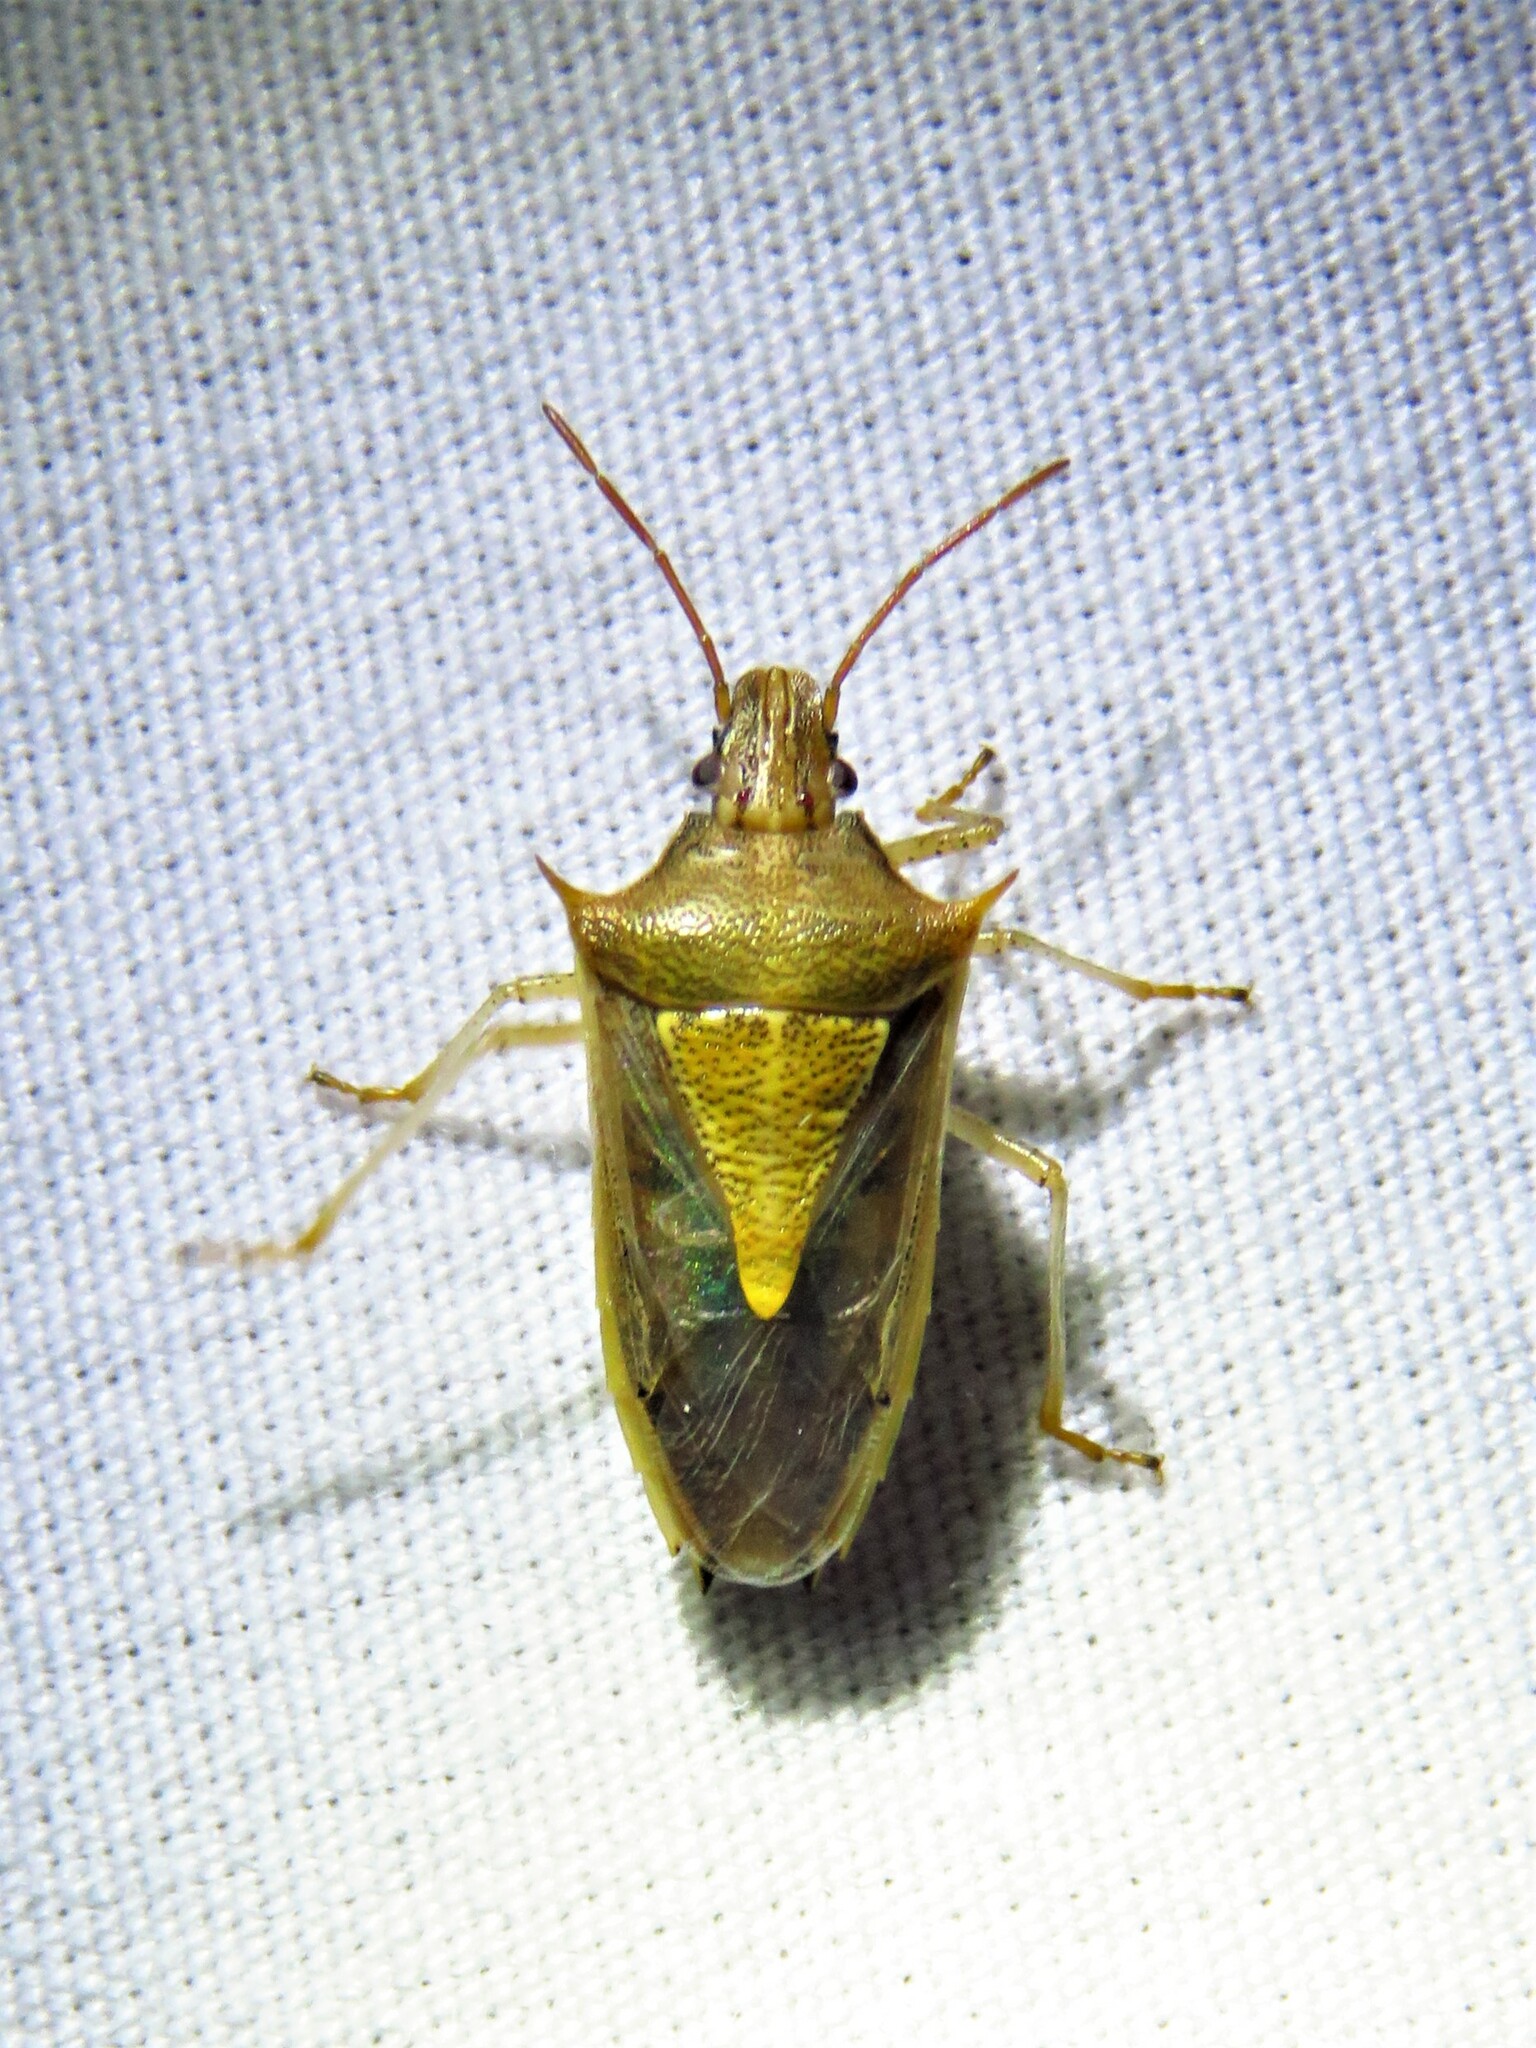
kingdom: Animalia
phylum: Arthropoda
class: Insecta
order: Hemiptera
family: Pentatomidae
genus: Oebalus
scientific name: Oebalus pugnax
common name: Rice stink bug
